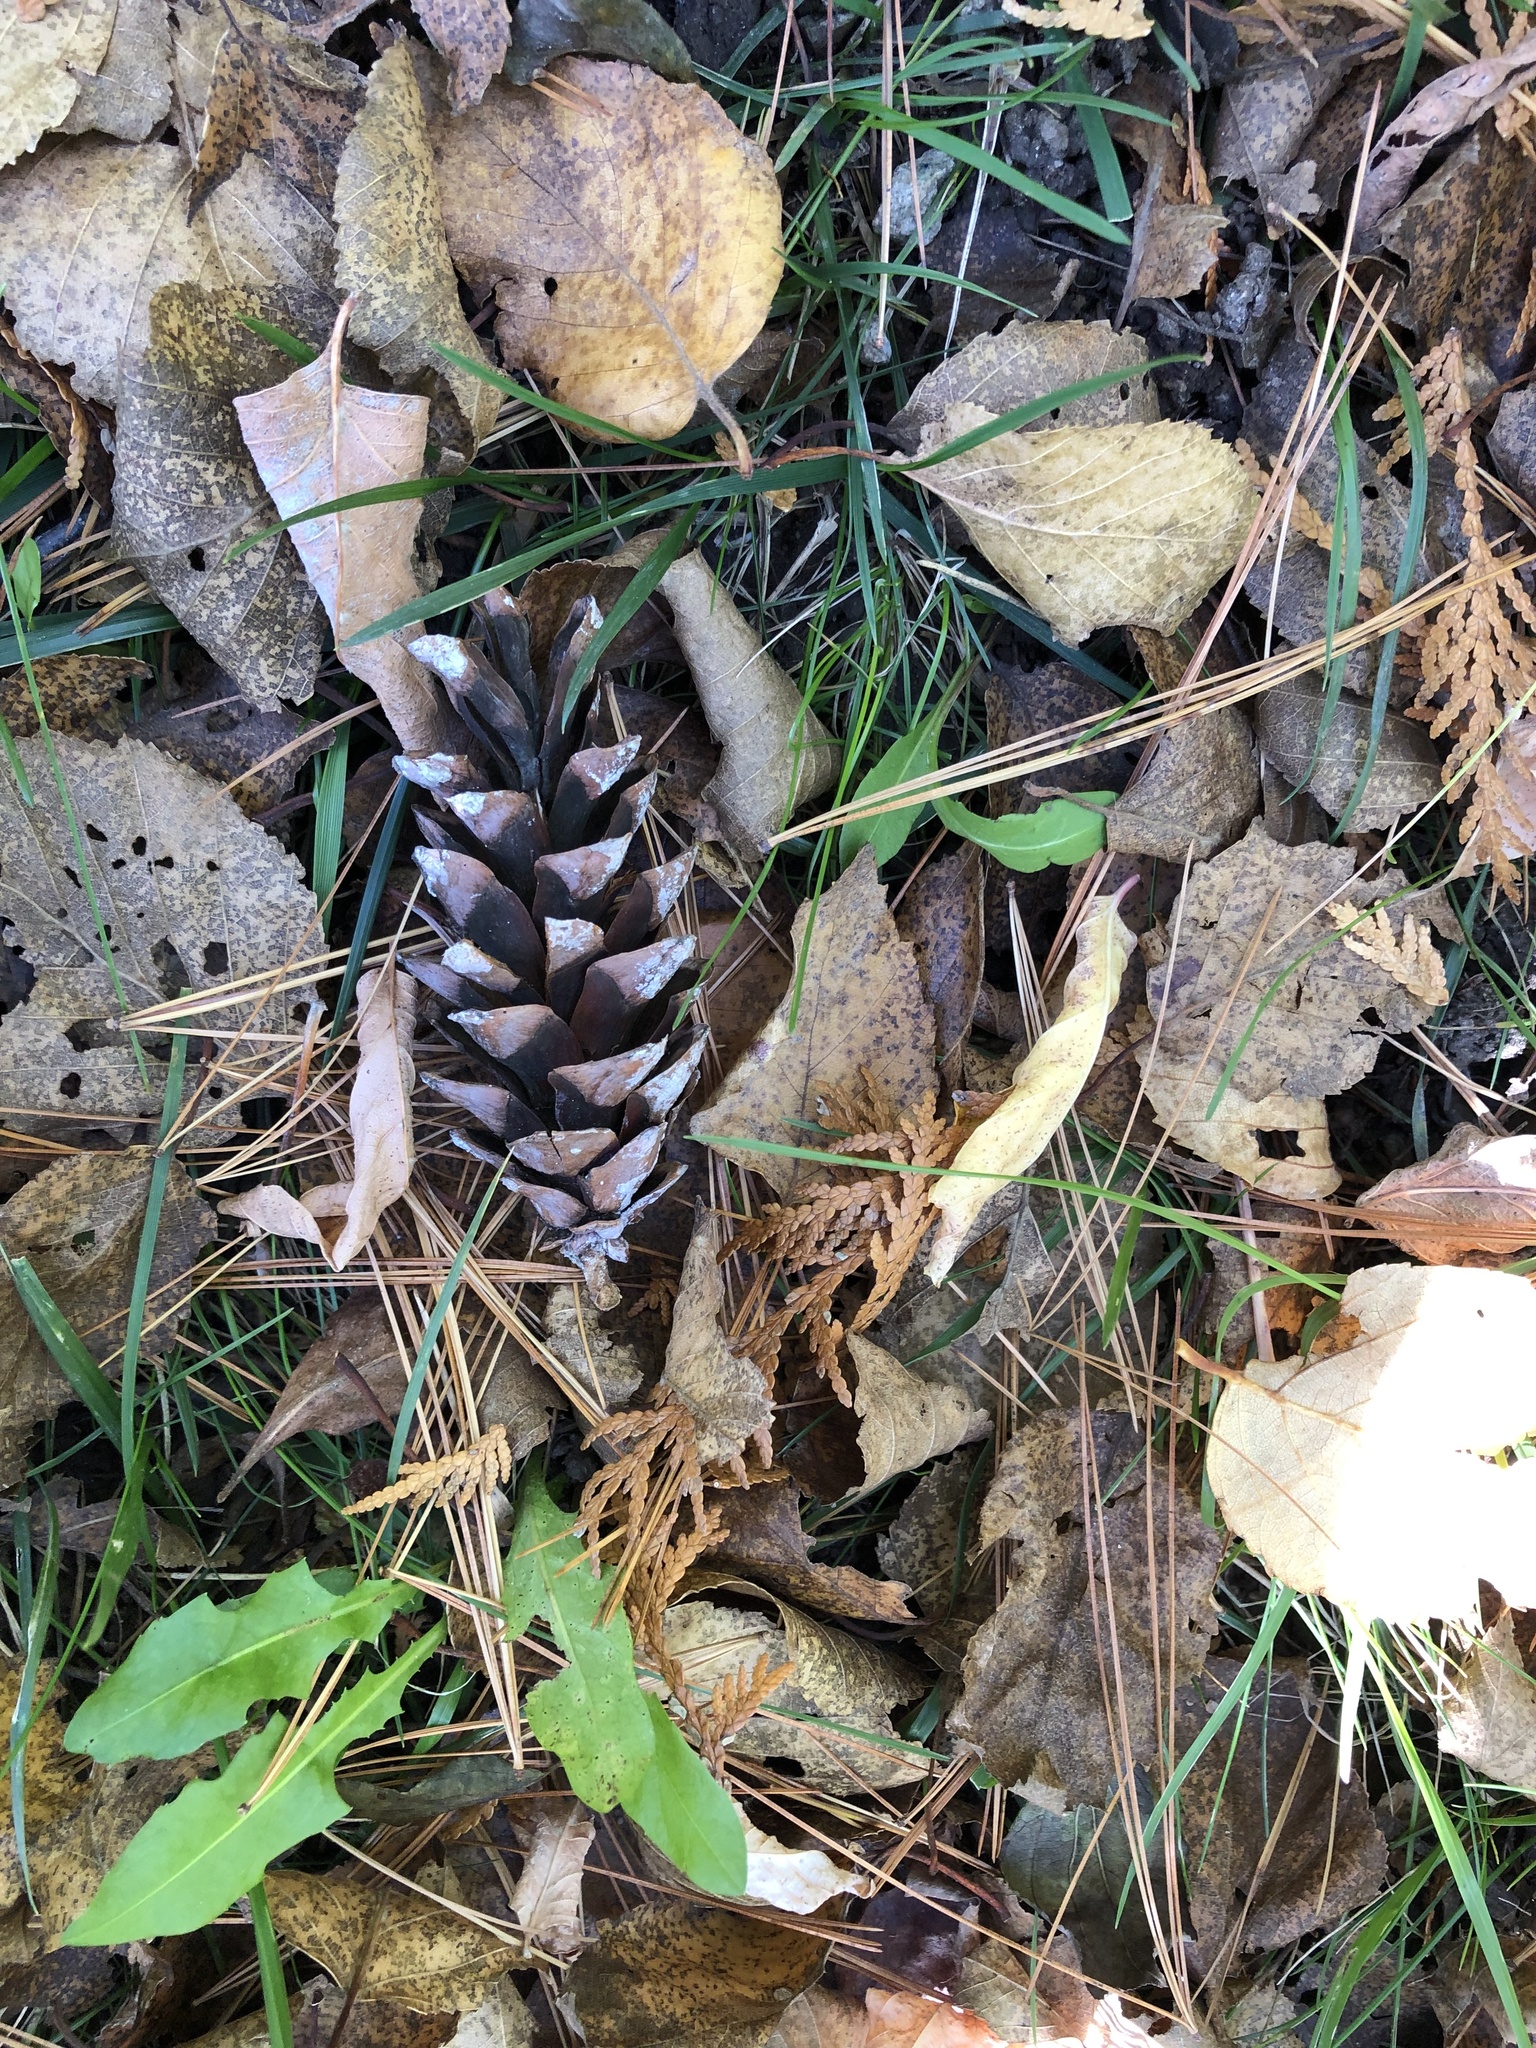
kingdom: Plantae
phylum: Tracheophyta
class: Pinopsida
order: Pinales
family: Pinaceae
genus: Pinus
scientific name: Pinus strobus
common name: Weymouth pine
